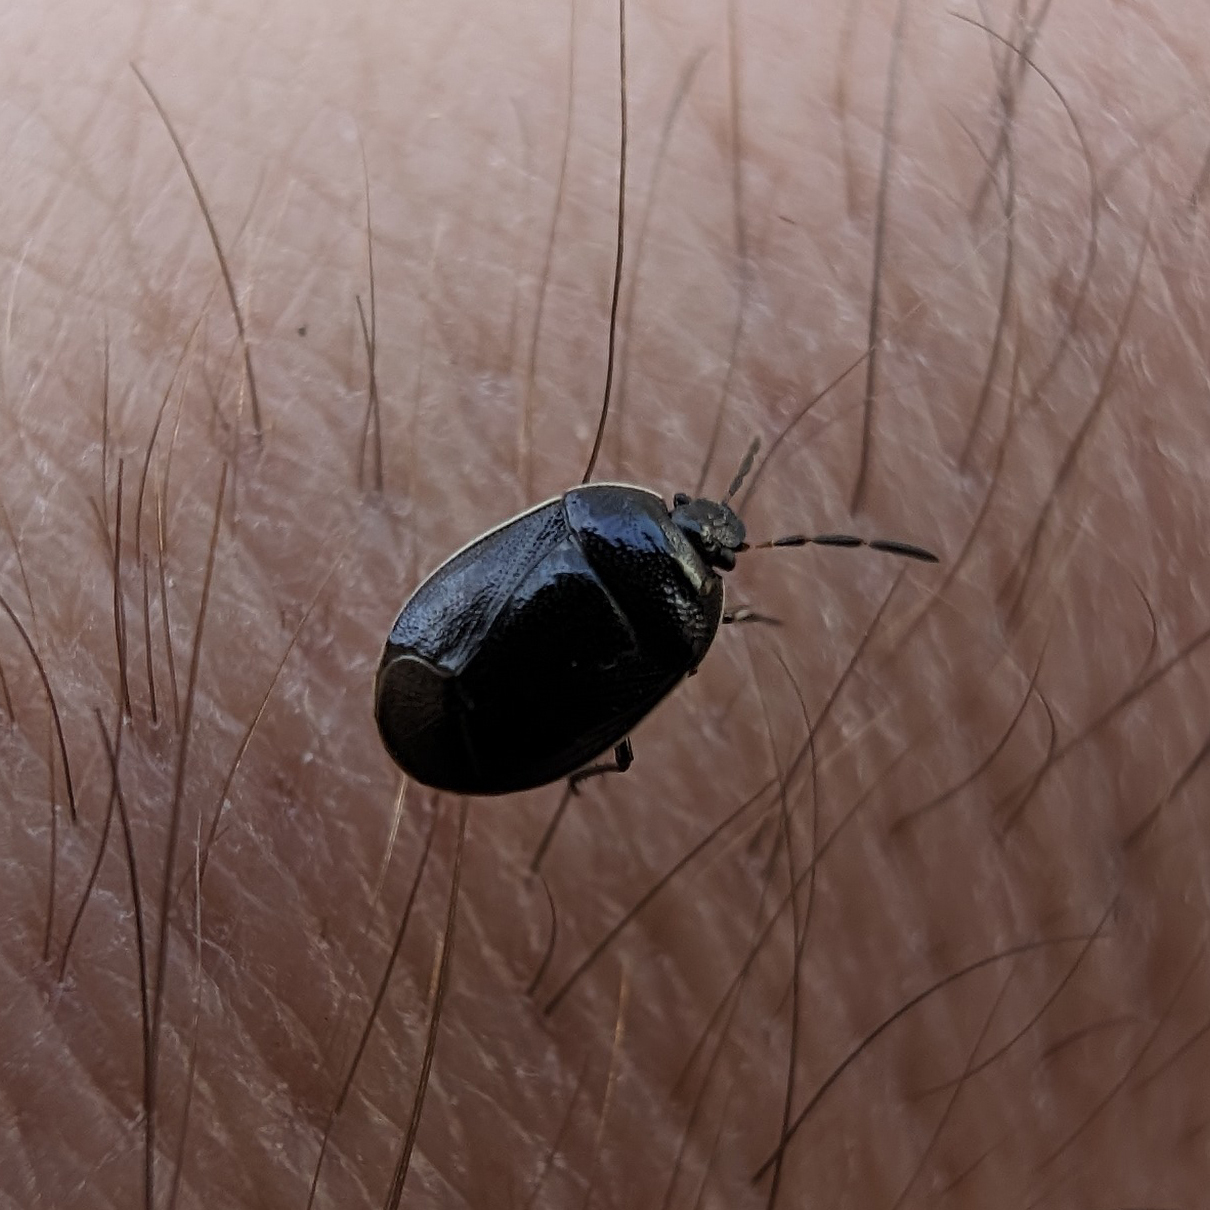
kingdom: Animalia
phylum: Arthropoda
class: Insecta
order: Hemiptera
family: Cydnidae
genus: Sehirus
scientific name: Sehirus cinctus
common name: White-margined burrower bug
